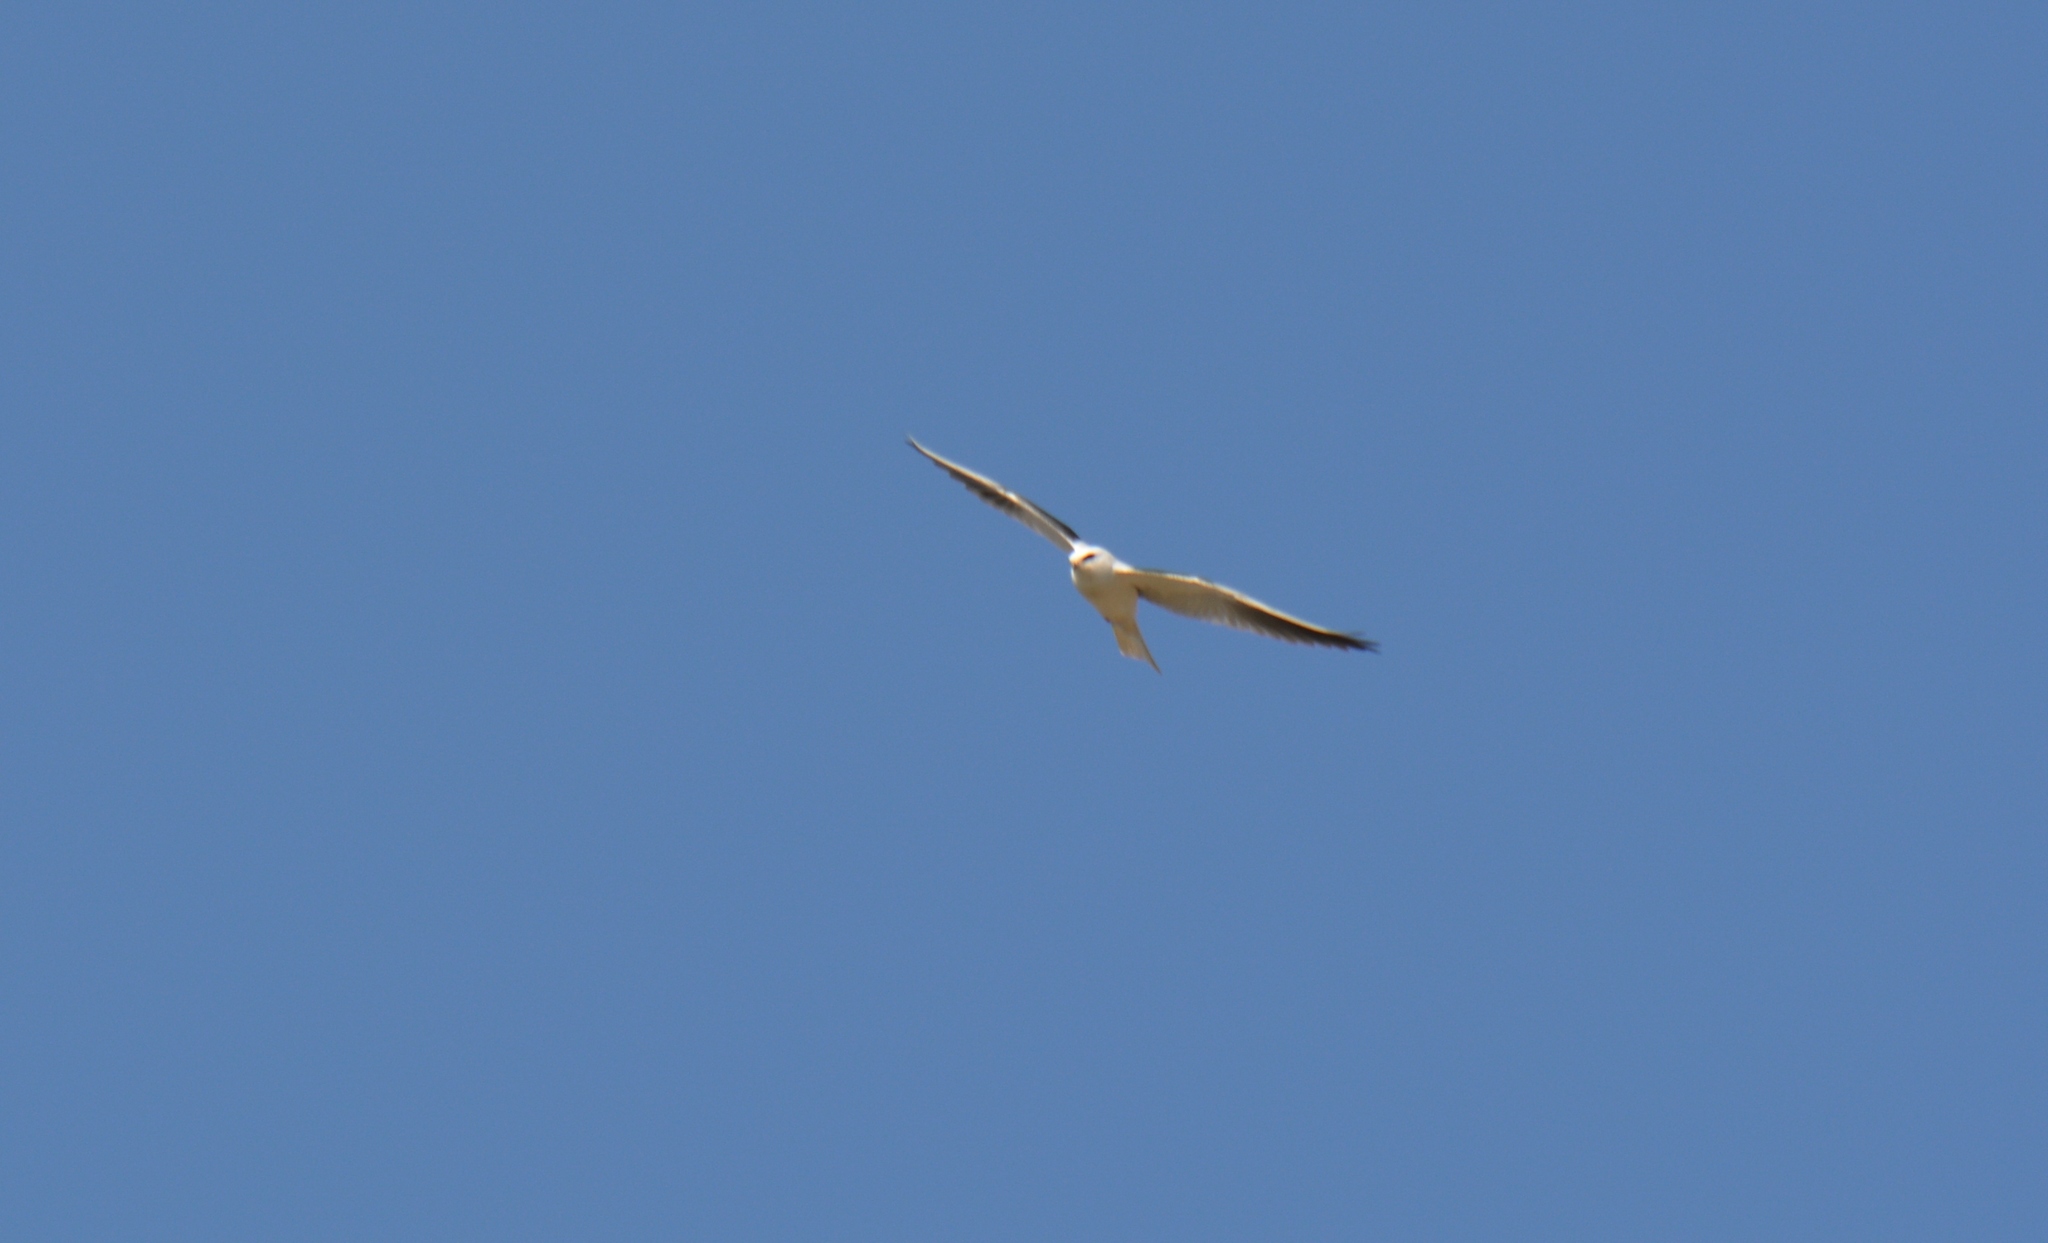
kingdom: Animalia
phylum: Chordata
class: Aves
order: Accipitriformes
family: Accipitridae
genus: Elanus
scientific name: Elanus leucurus
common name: White-tailed kite
